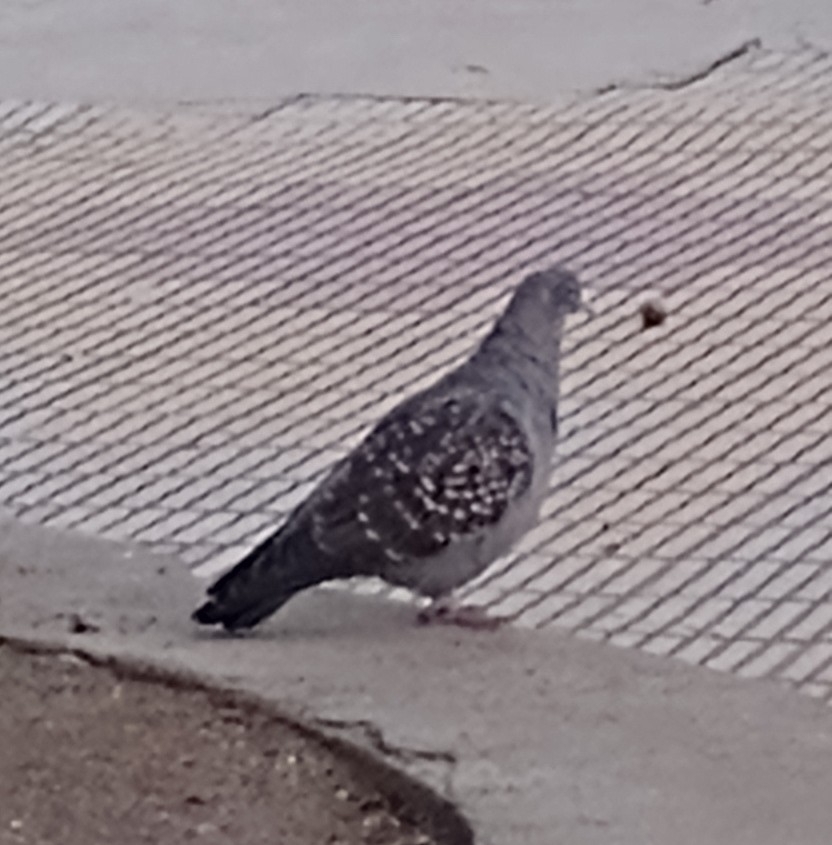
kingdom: Animalia
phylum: Chordata
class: Aves
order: Columbiformes
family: Columbidae
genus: Patagioenas
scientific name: Patagioenas maculosa
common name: Spot-winged pigeon
